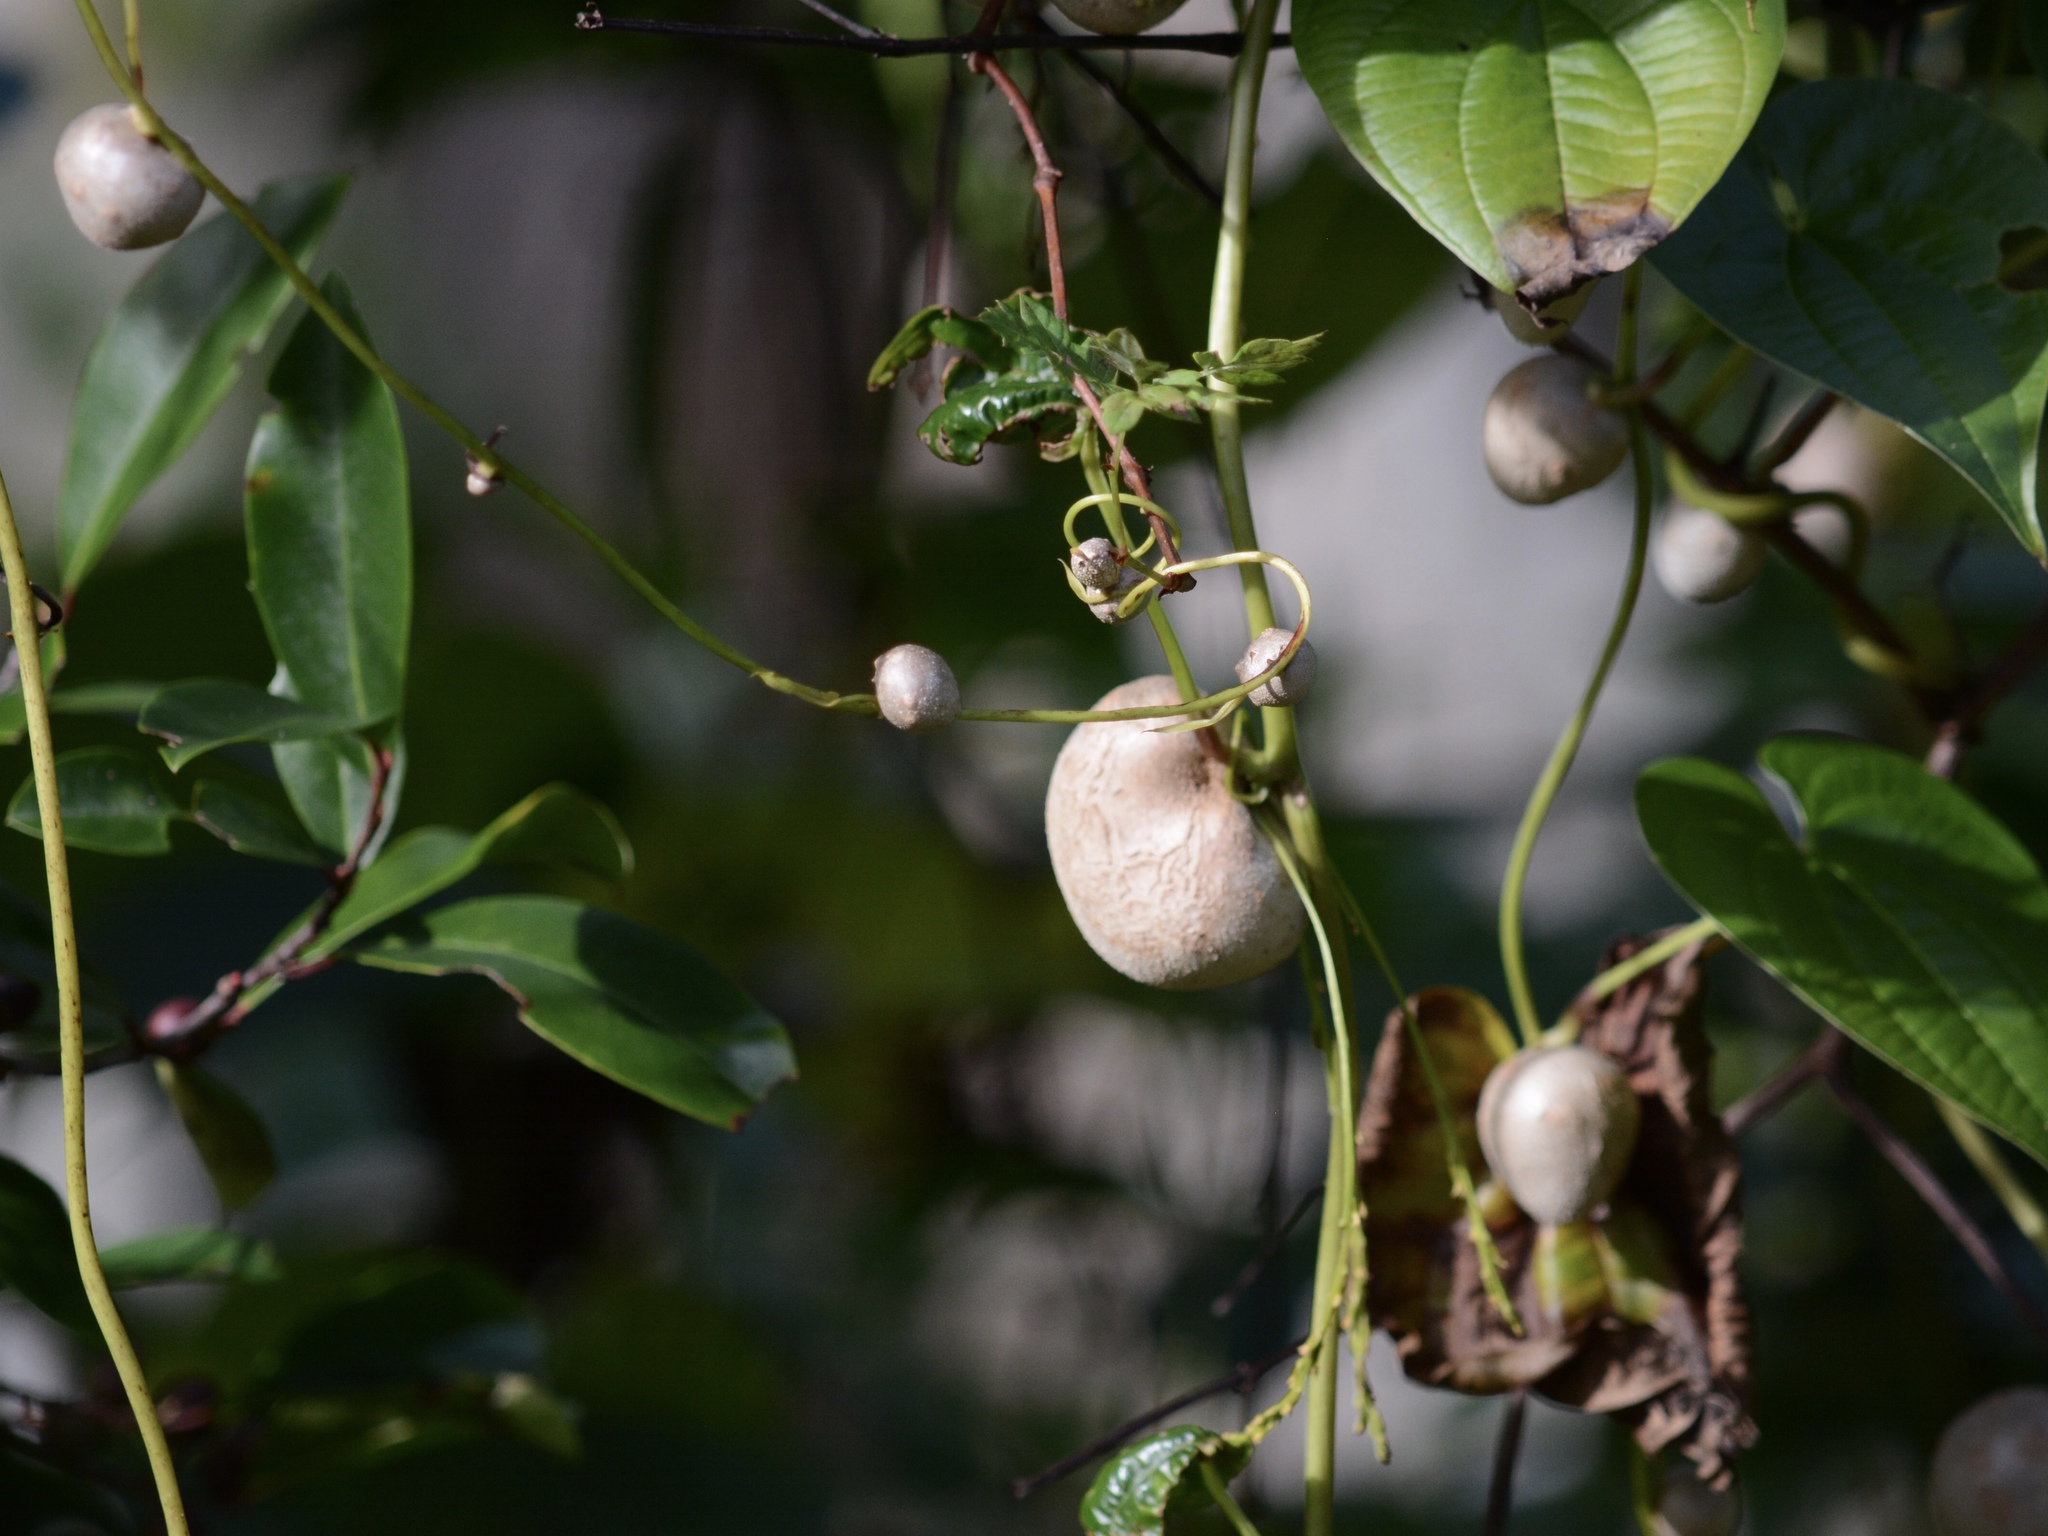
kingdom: Plantae
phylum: Tracheophyta
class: Liliopsida
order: Dioscoreales
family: Dioscoreaceae
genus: Dioscorea
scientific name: Dioscorea bulbifera
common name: Air yam
